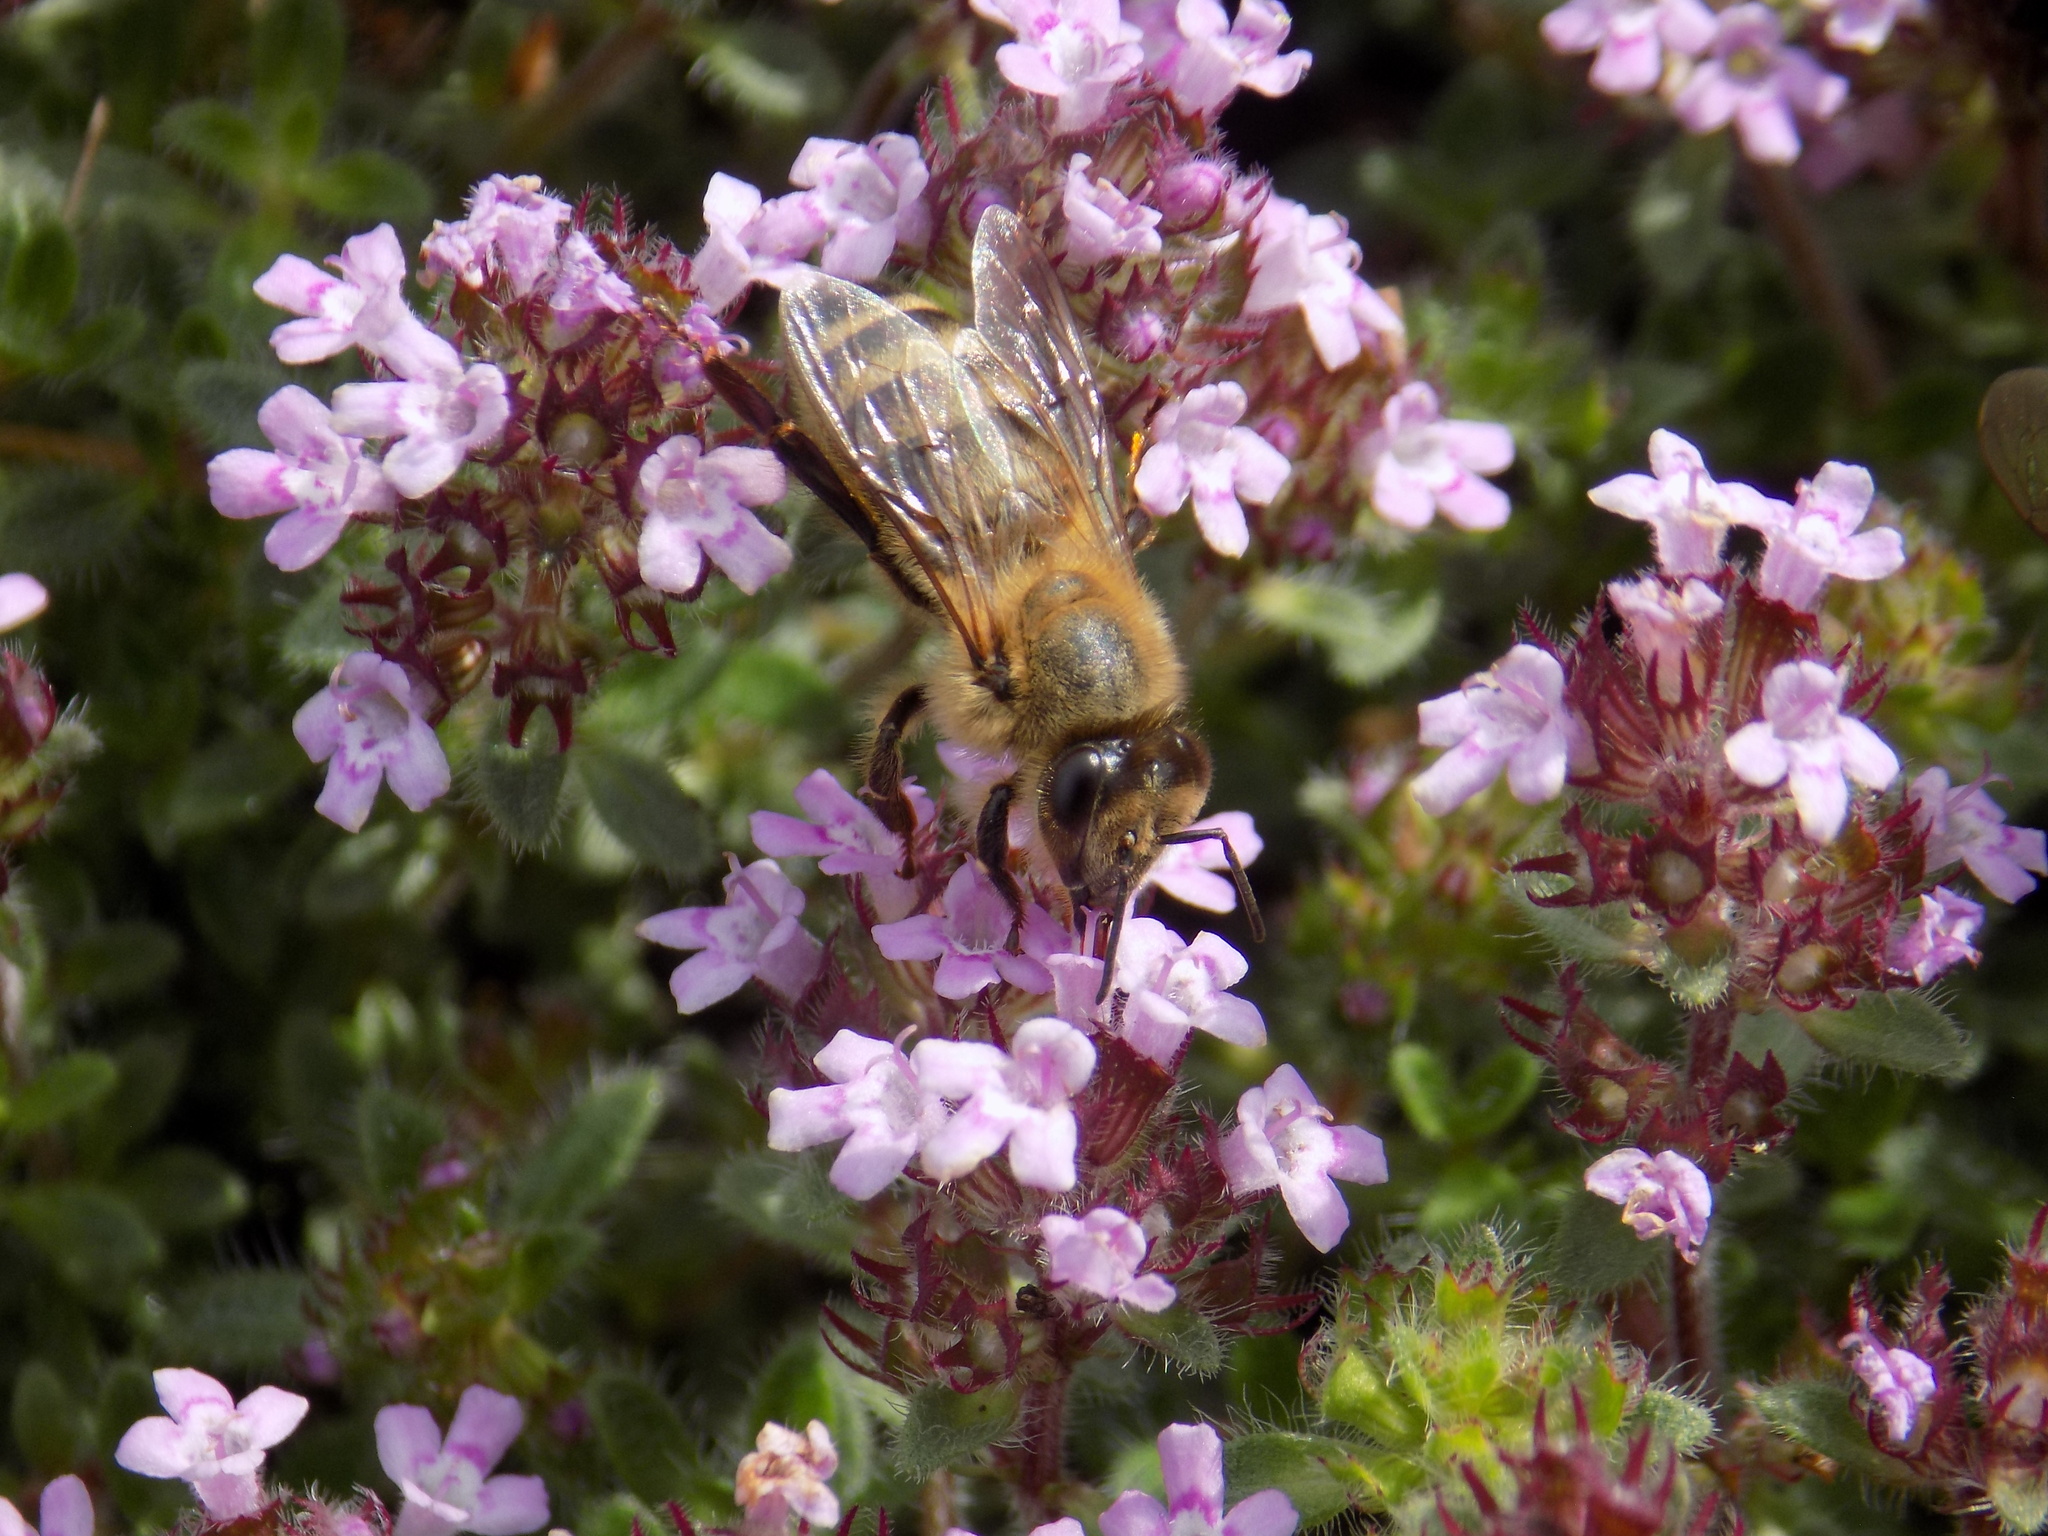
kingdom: Animalia
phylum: Arthropoda
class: Insecta
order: Hymenoptera
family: Apidae
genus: Apis
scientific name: Apis mellifera
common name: Honey bee
